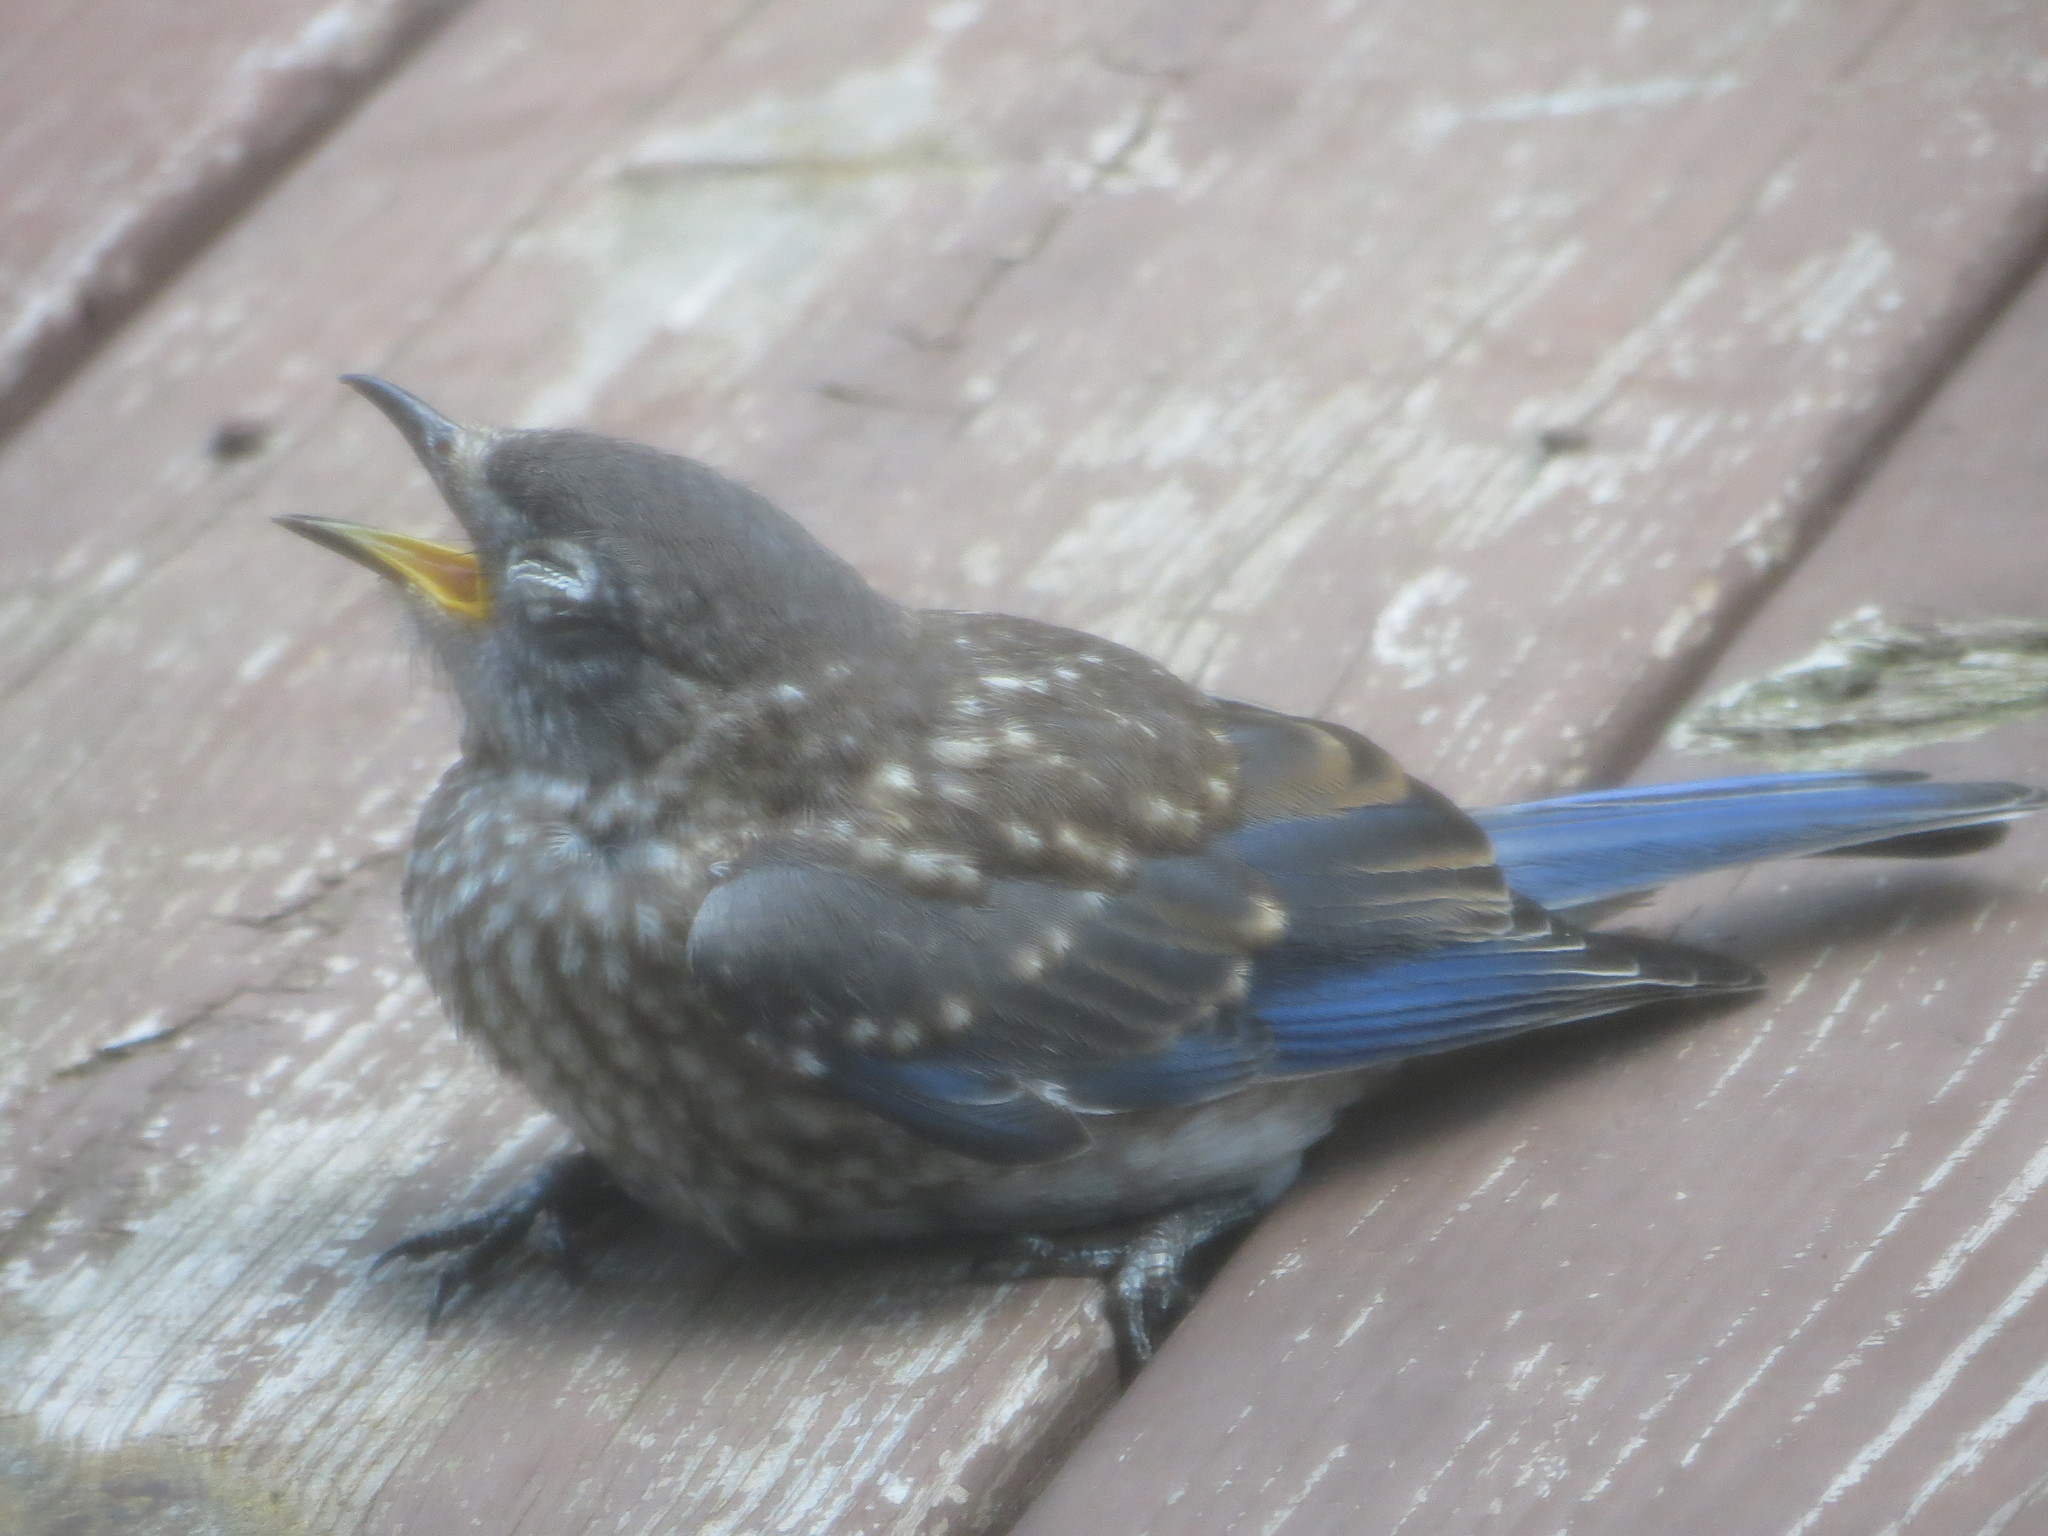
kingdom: Animalia
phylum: Chordata
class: Aves
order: Passeriformes
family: Turdidae
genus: Sialia
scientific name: Sialia sialis
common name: Eastern bluebird
